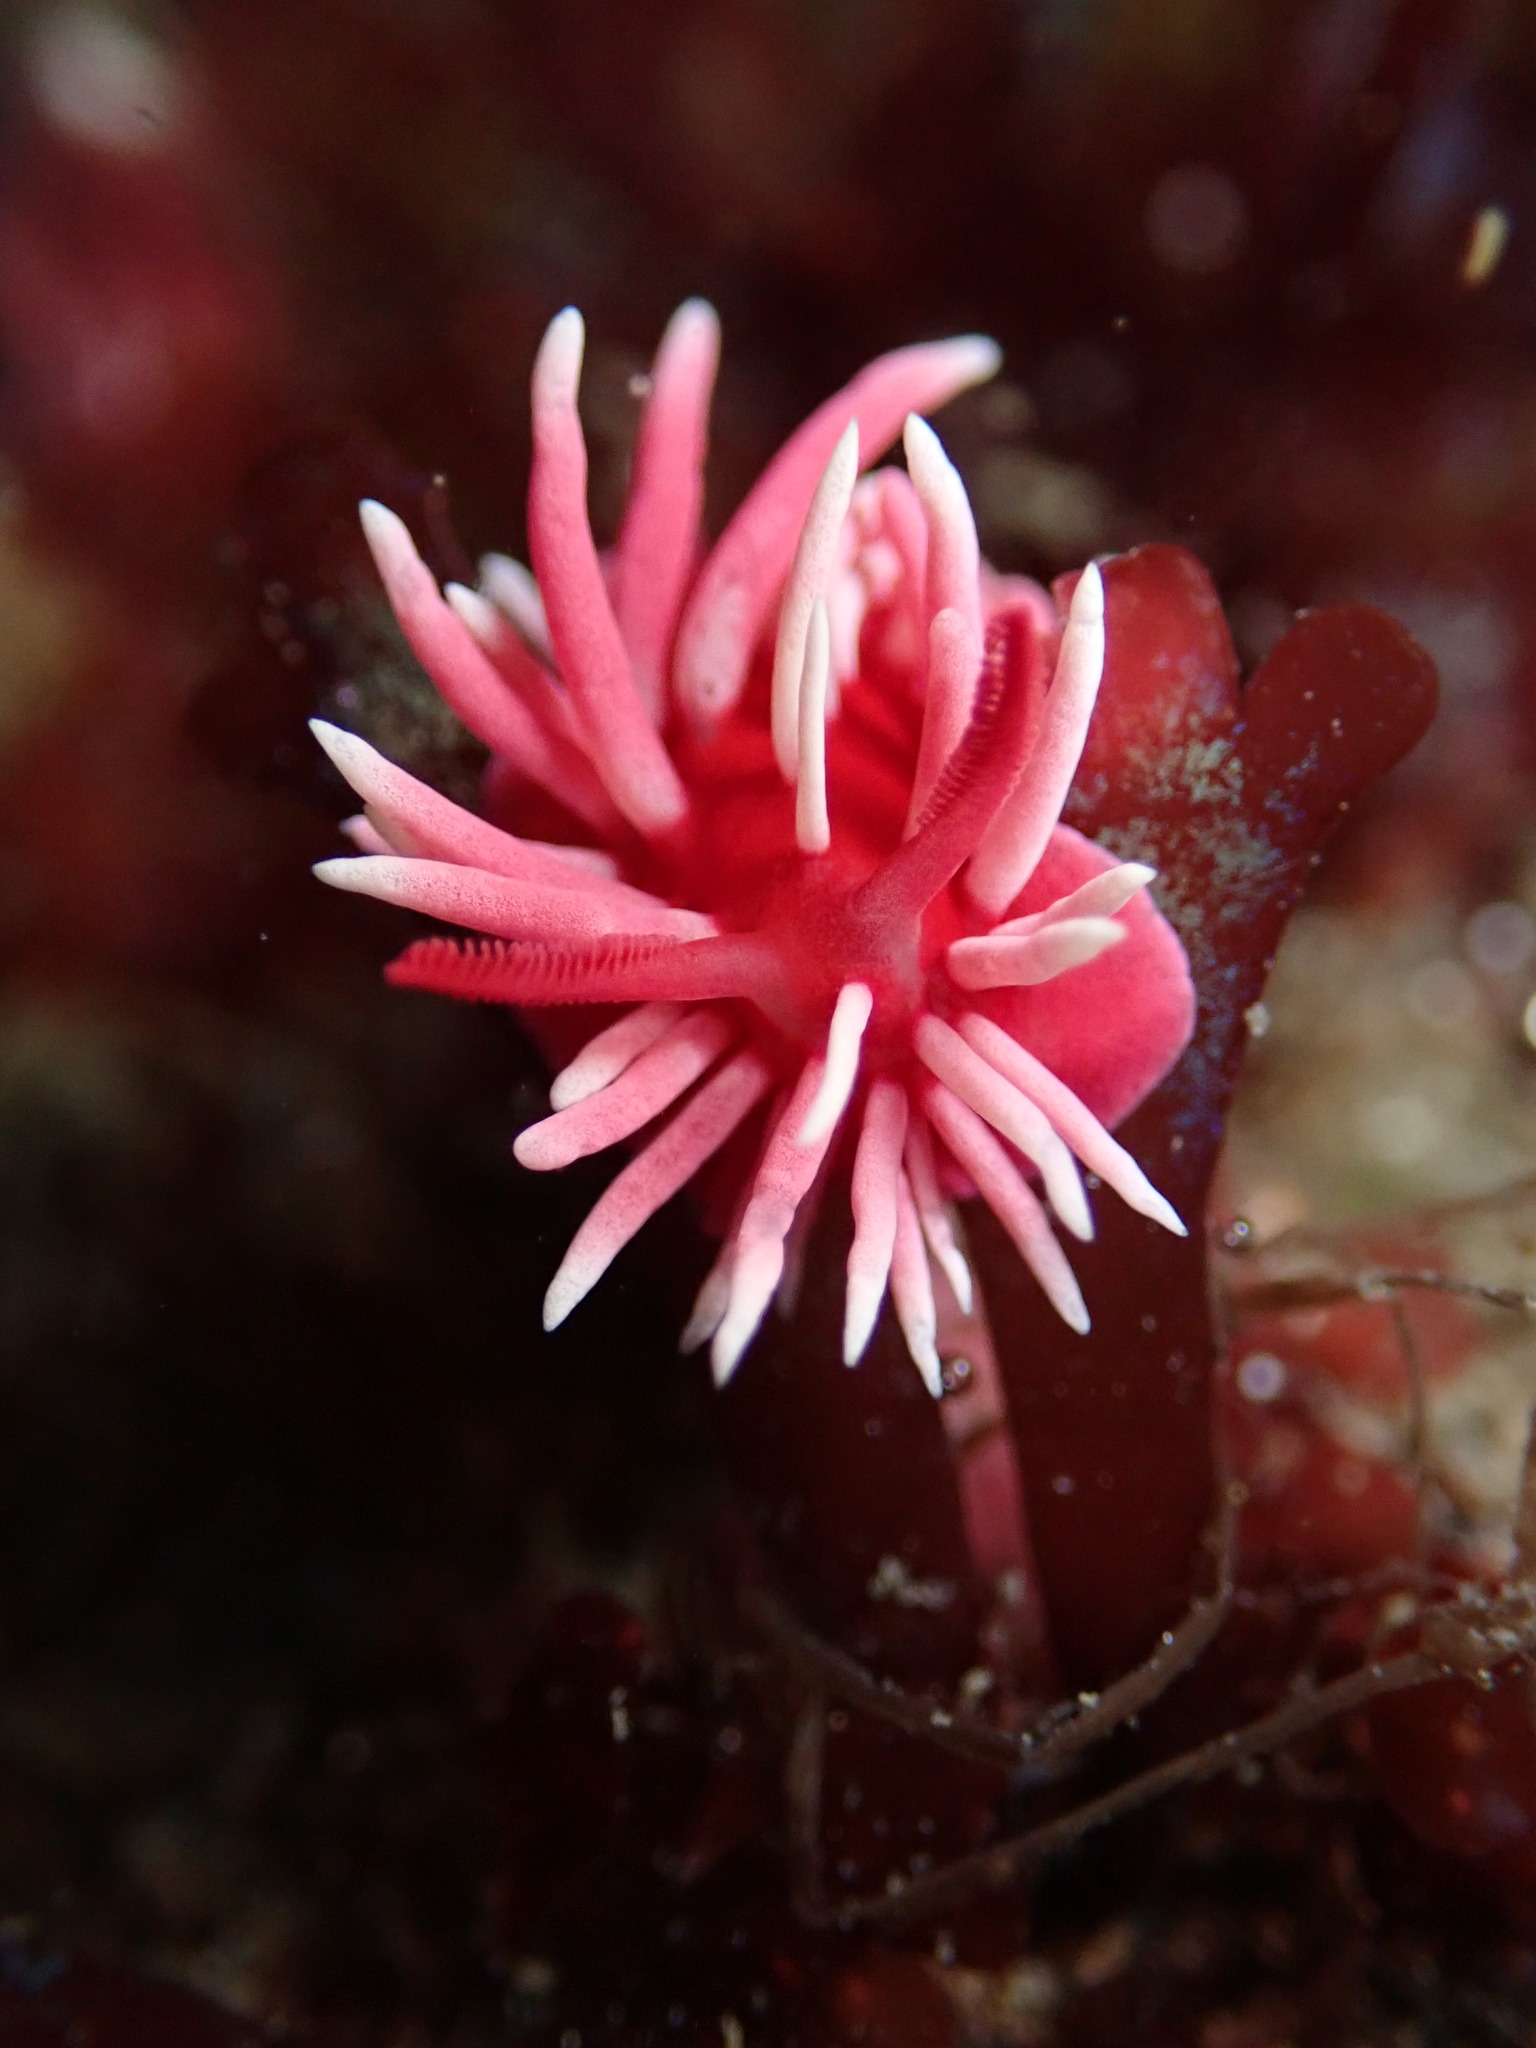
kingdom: Animalia
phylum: Mollusca
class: Gastropoda
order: Nudibranchia
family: Goniodorididae
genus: Okenia
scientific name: Okenia
